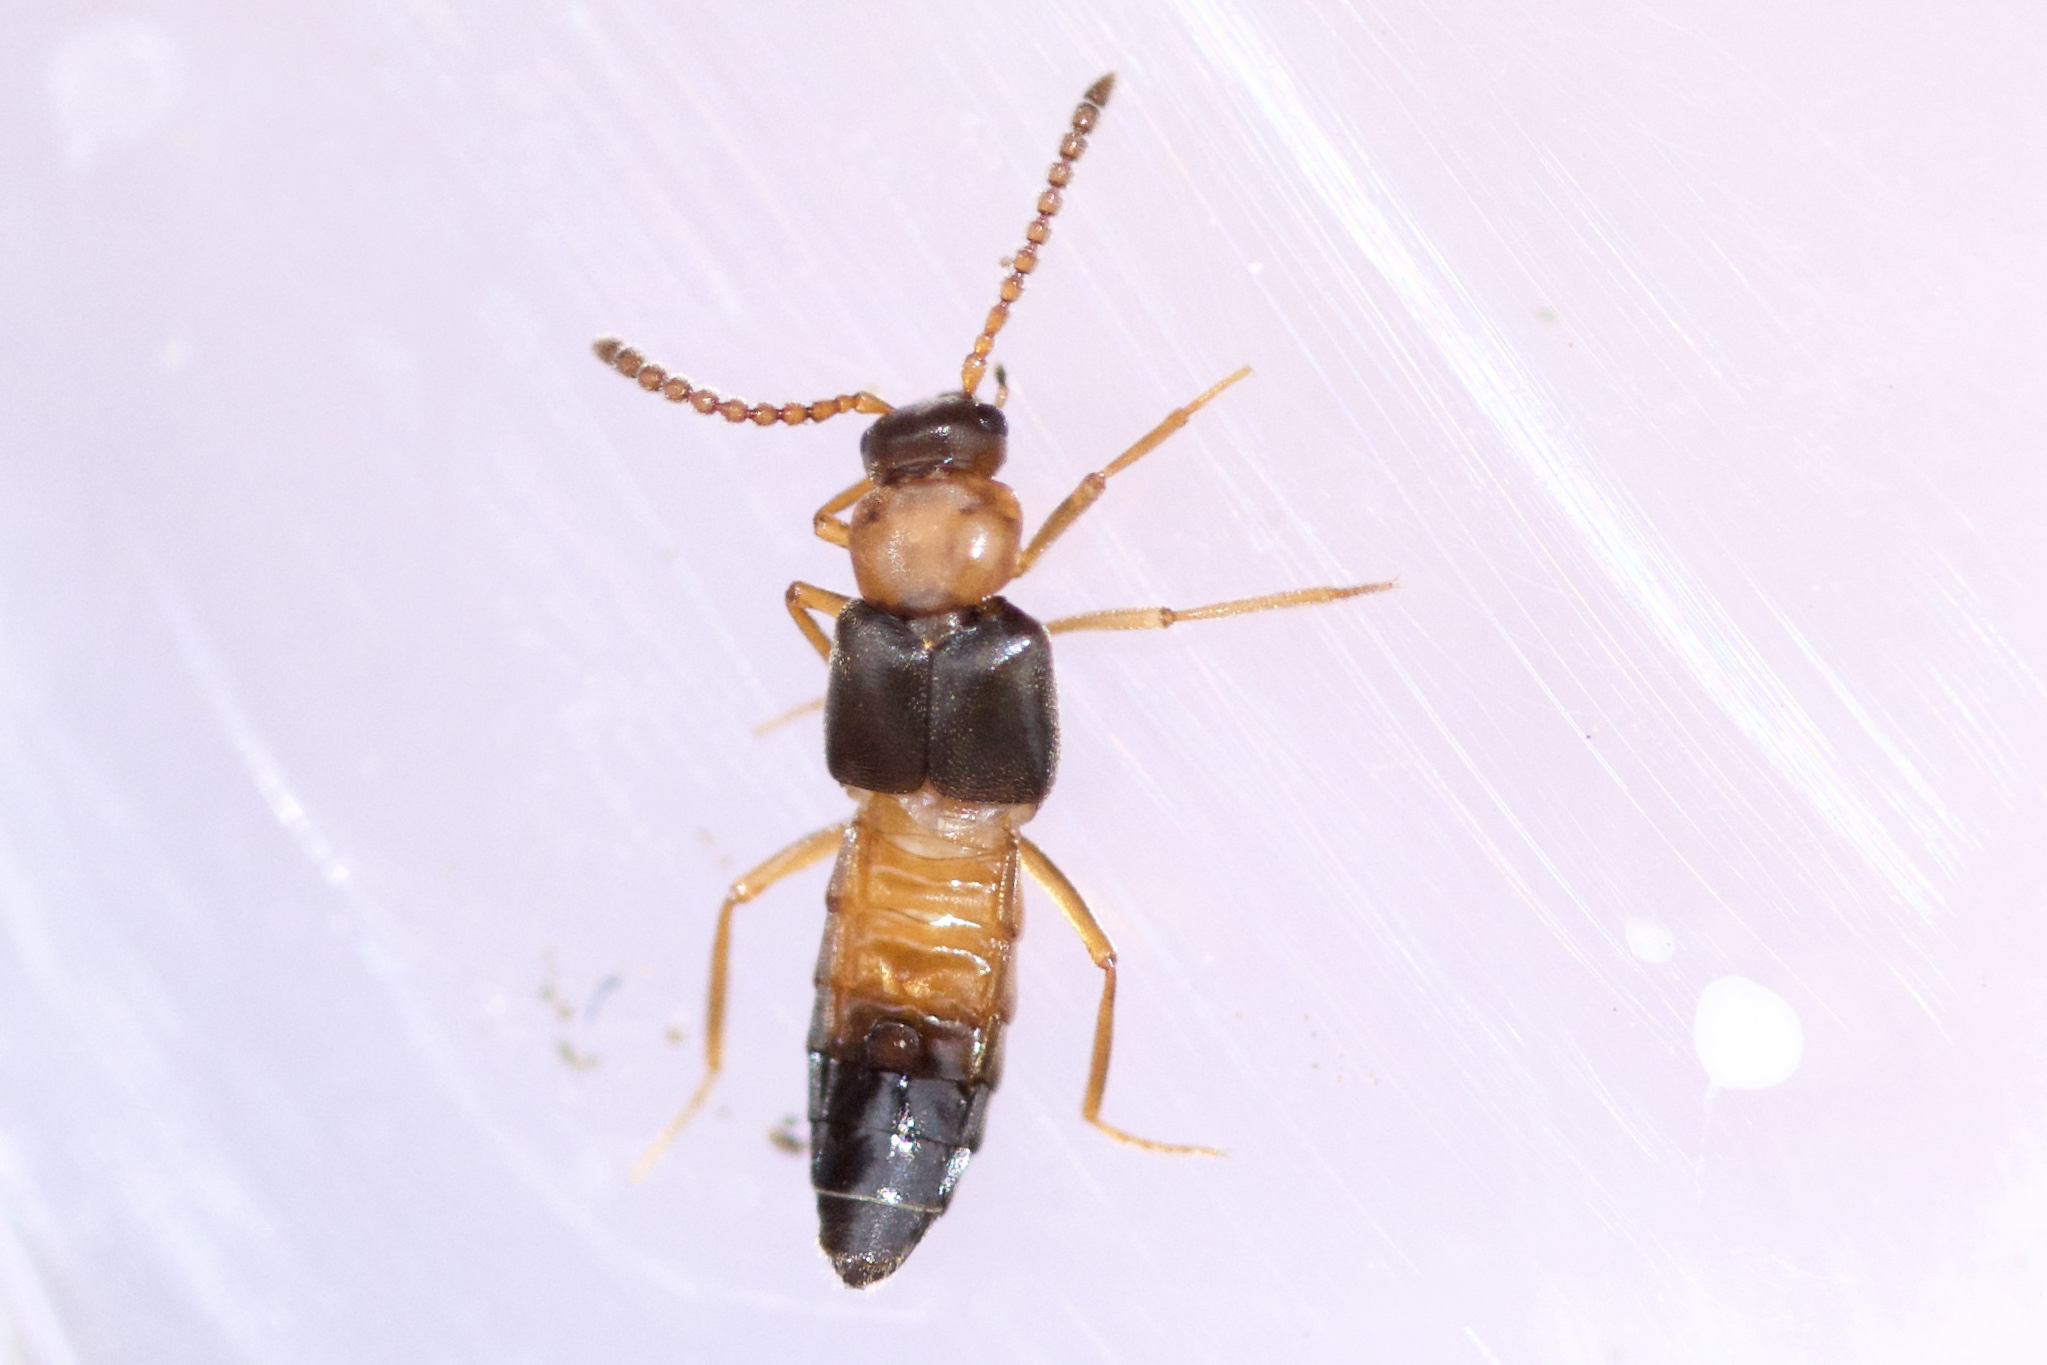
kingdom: Animalia
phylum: Arthropoda
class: Insecta
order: Coleoptera
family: Staphylinidae
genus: Myrmoecia
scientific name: Myrmoecia lauta
